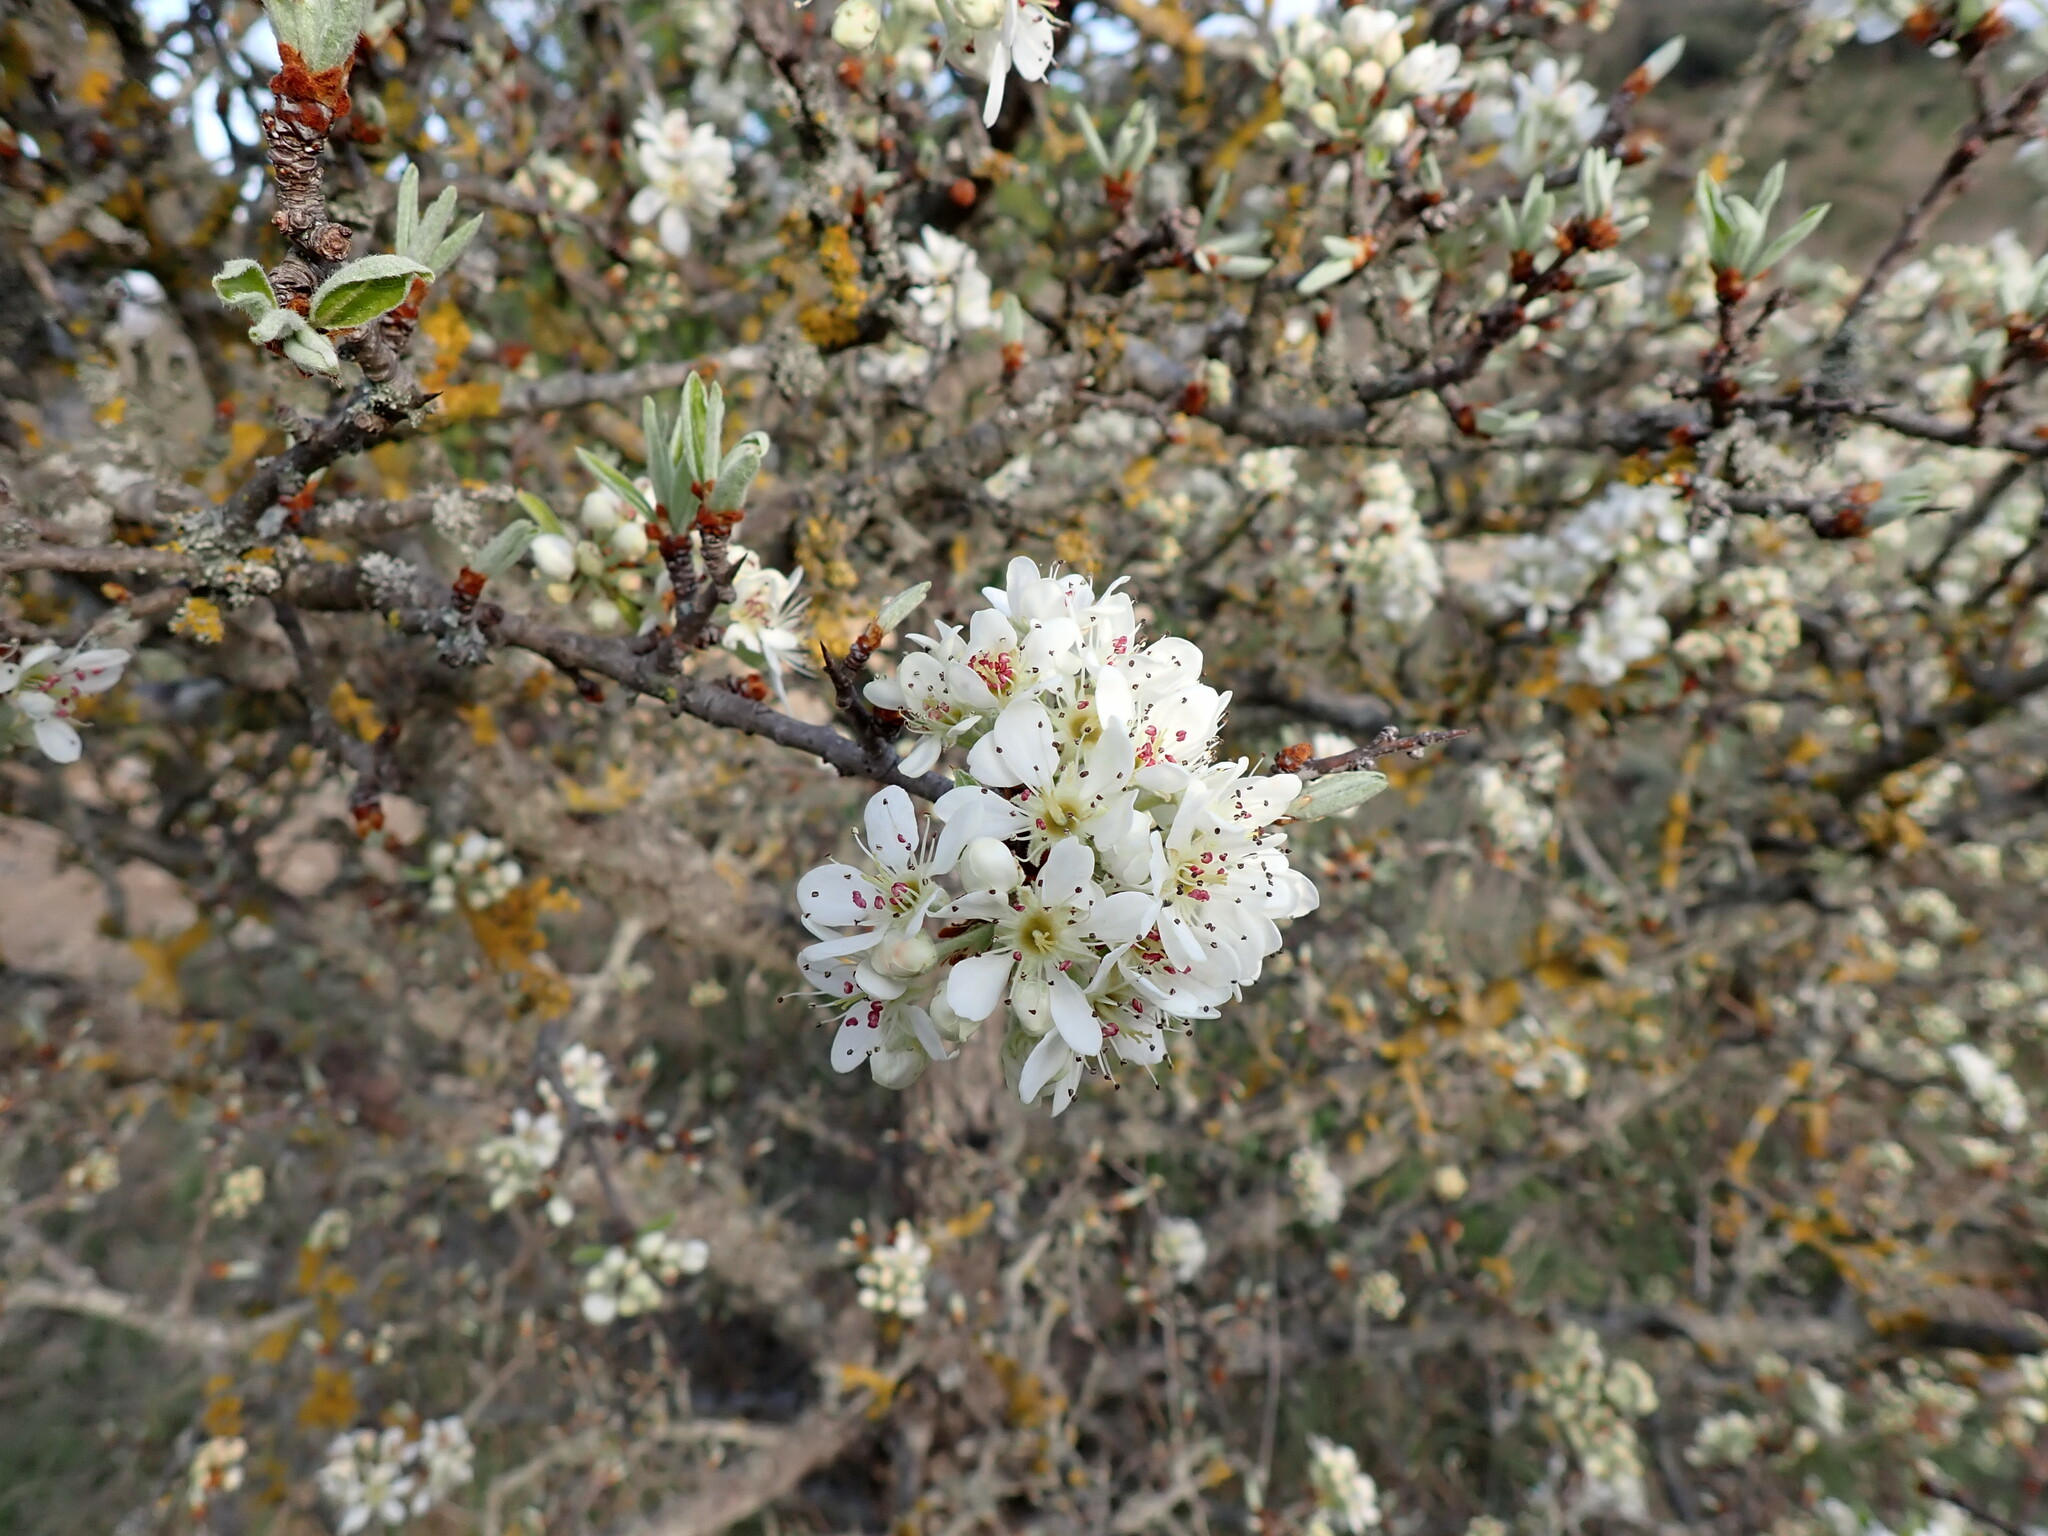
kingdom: Plantae
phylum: Tracheophyta
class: Magnoliopsida
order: Rosales
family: Rosaceae
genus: Pyrus
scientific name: Pyrus spinosa
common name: Almond-leaf pear
